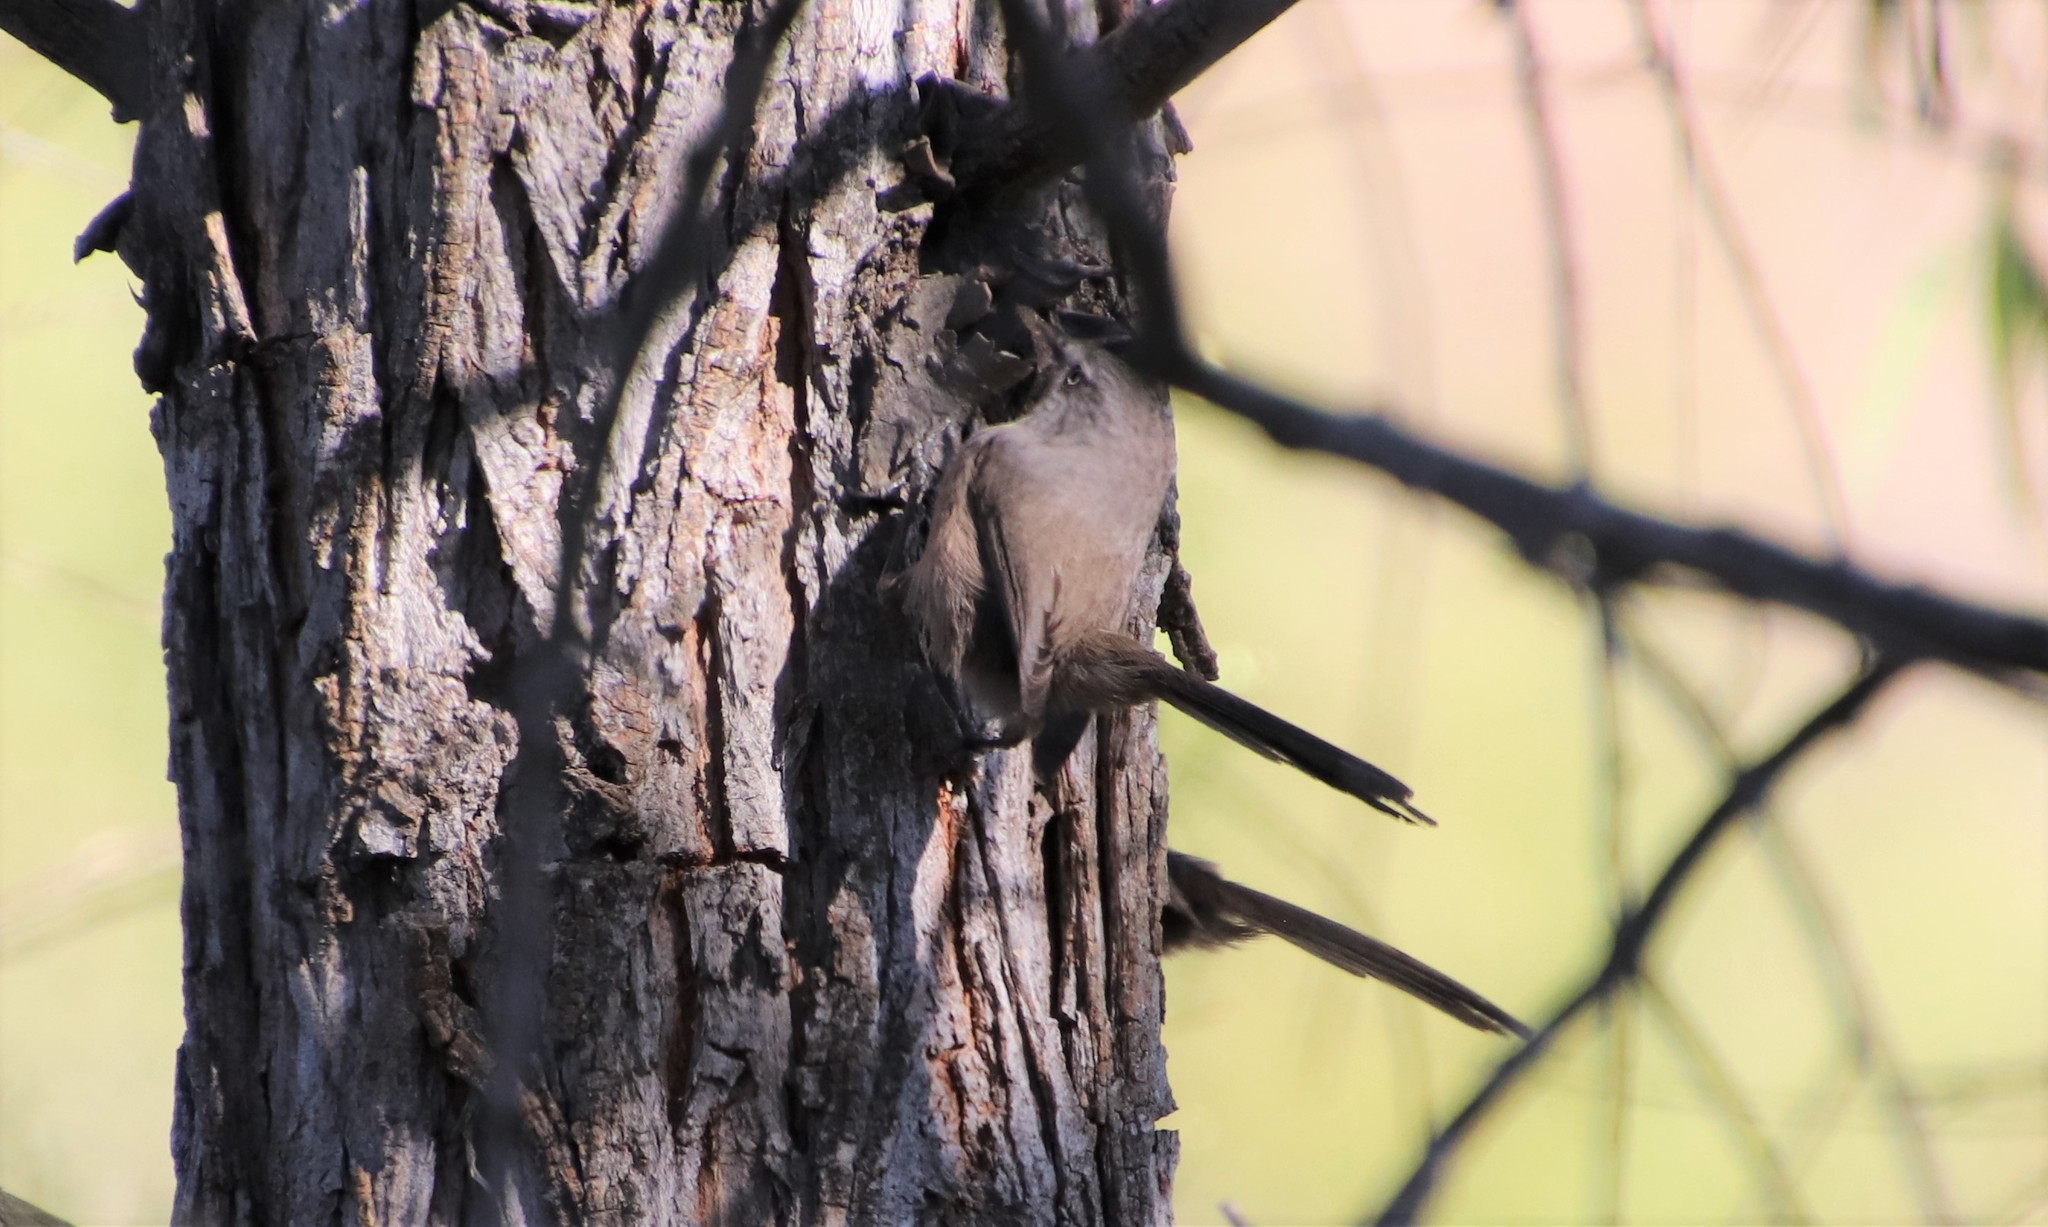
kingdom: Animalia
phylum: Chordata
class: Aves
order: Passeriformes
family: Sylviidae
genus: Chamaea
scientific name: Chamaea fasciata
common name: Wrentit
